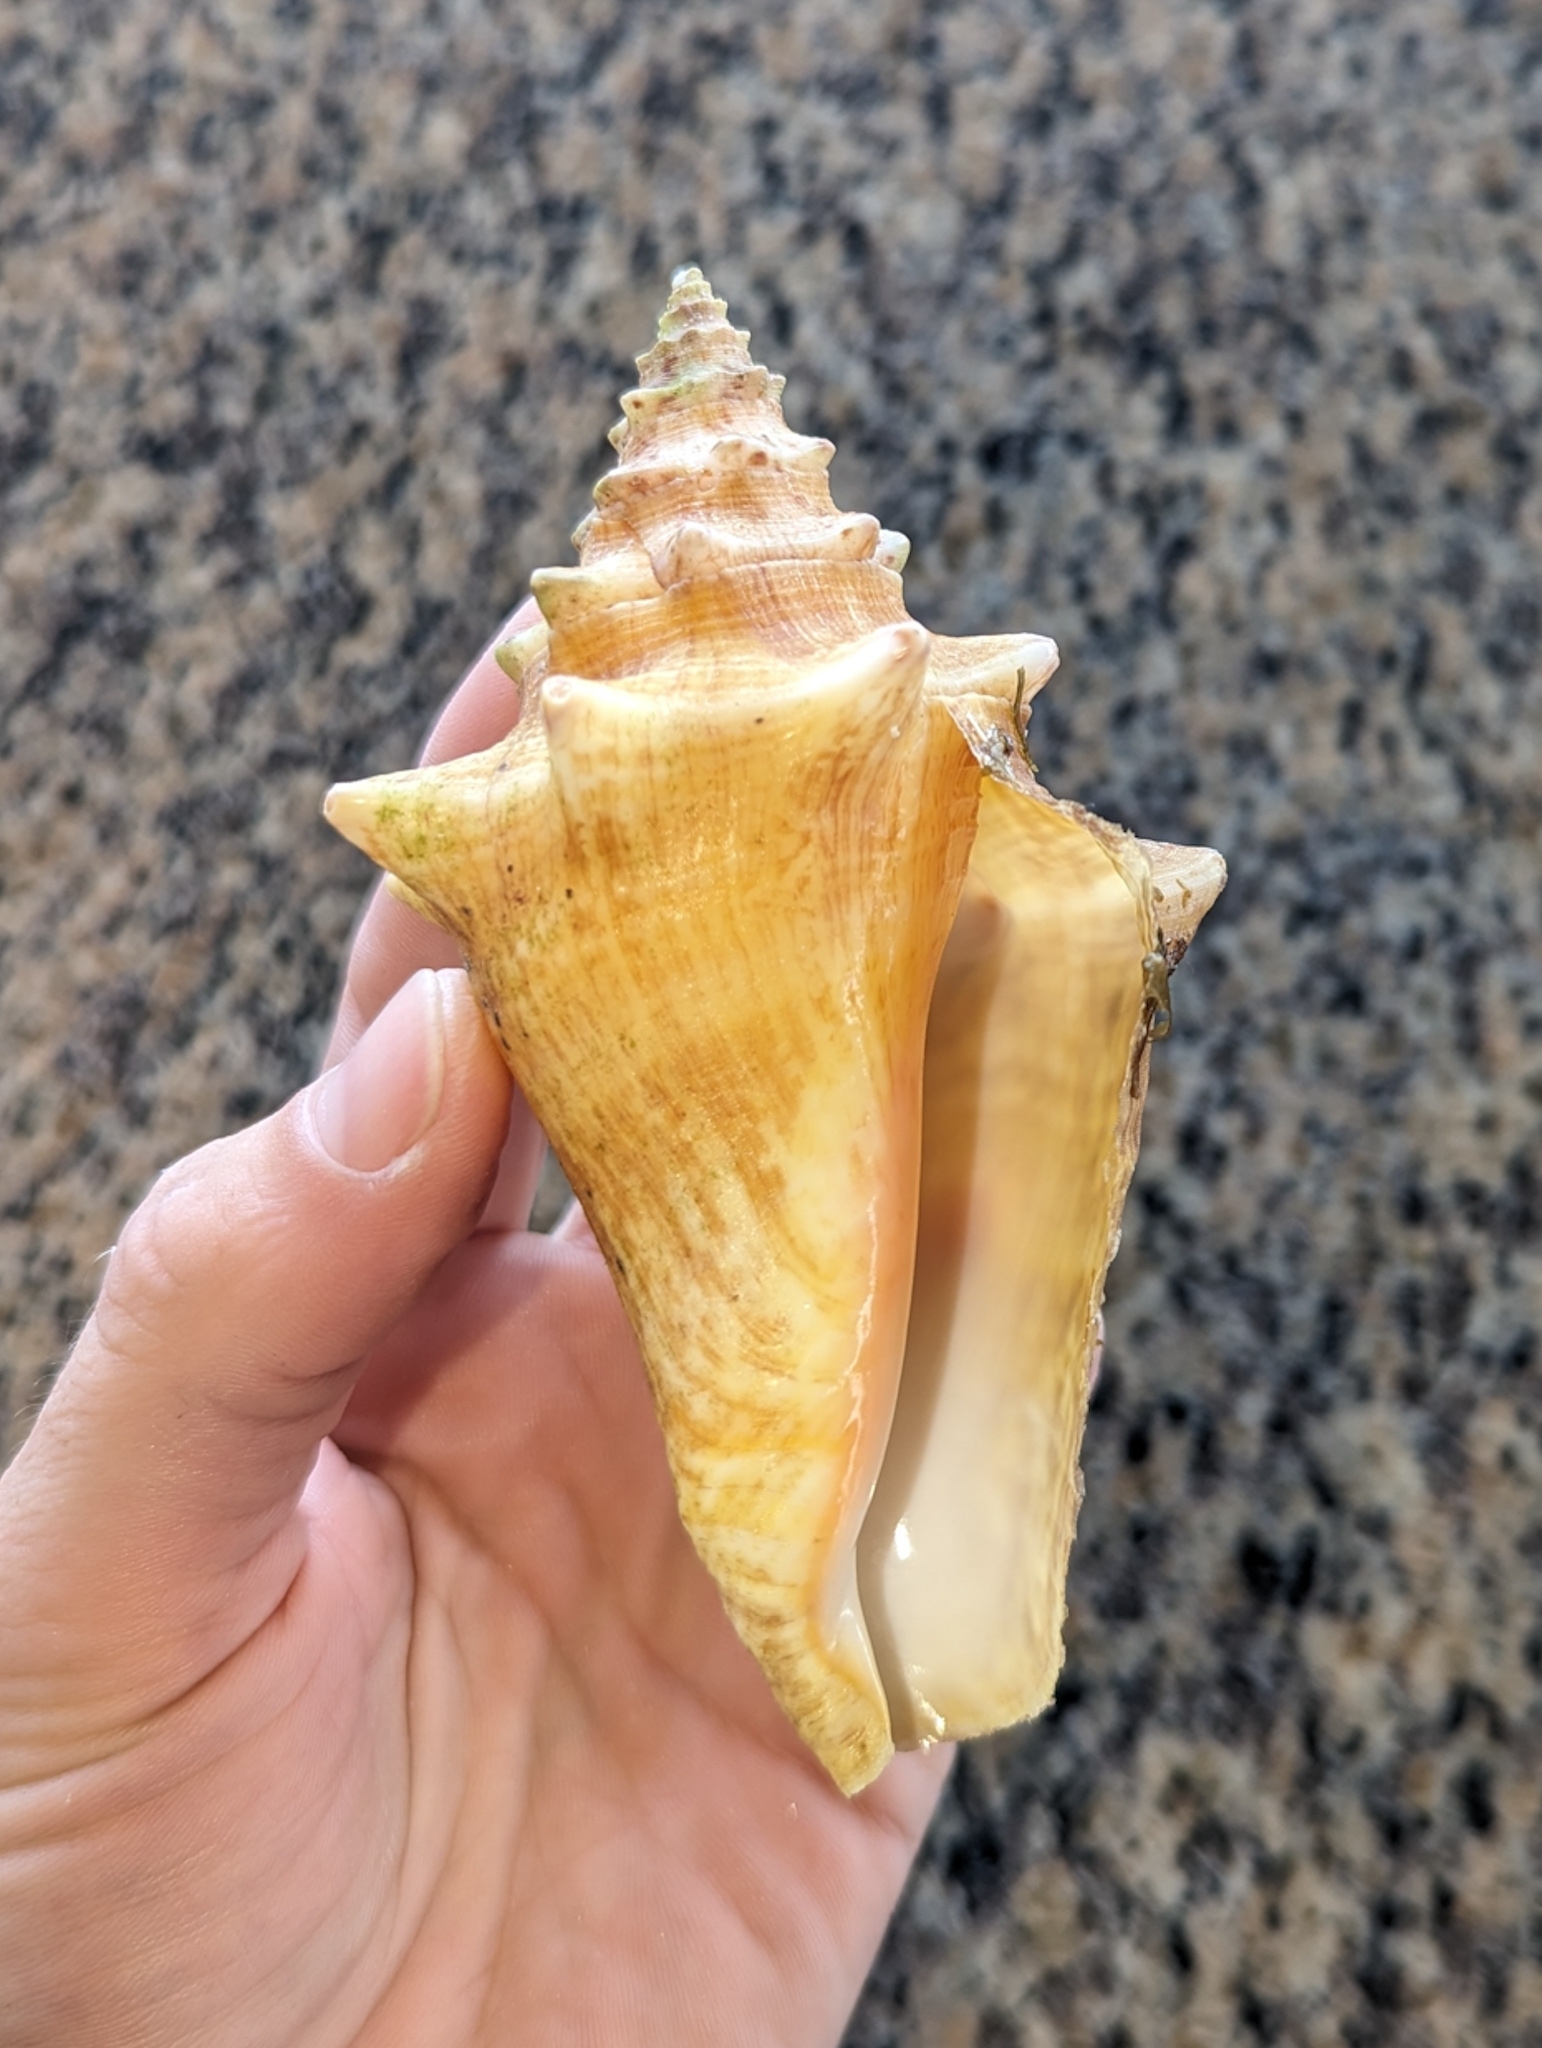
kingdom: Animalia
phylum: Mollusca
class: Gastropoda
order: Littorinimorpha
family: Strombidae
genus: Aliger
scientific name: Aliger gigas
